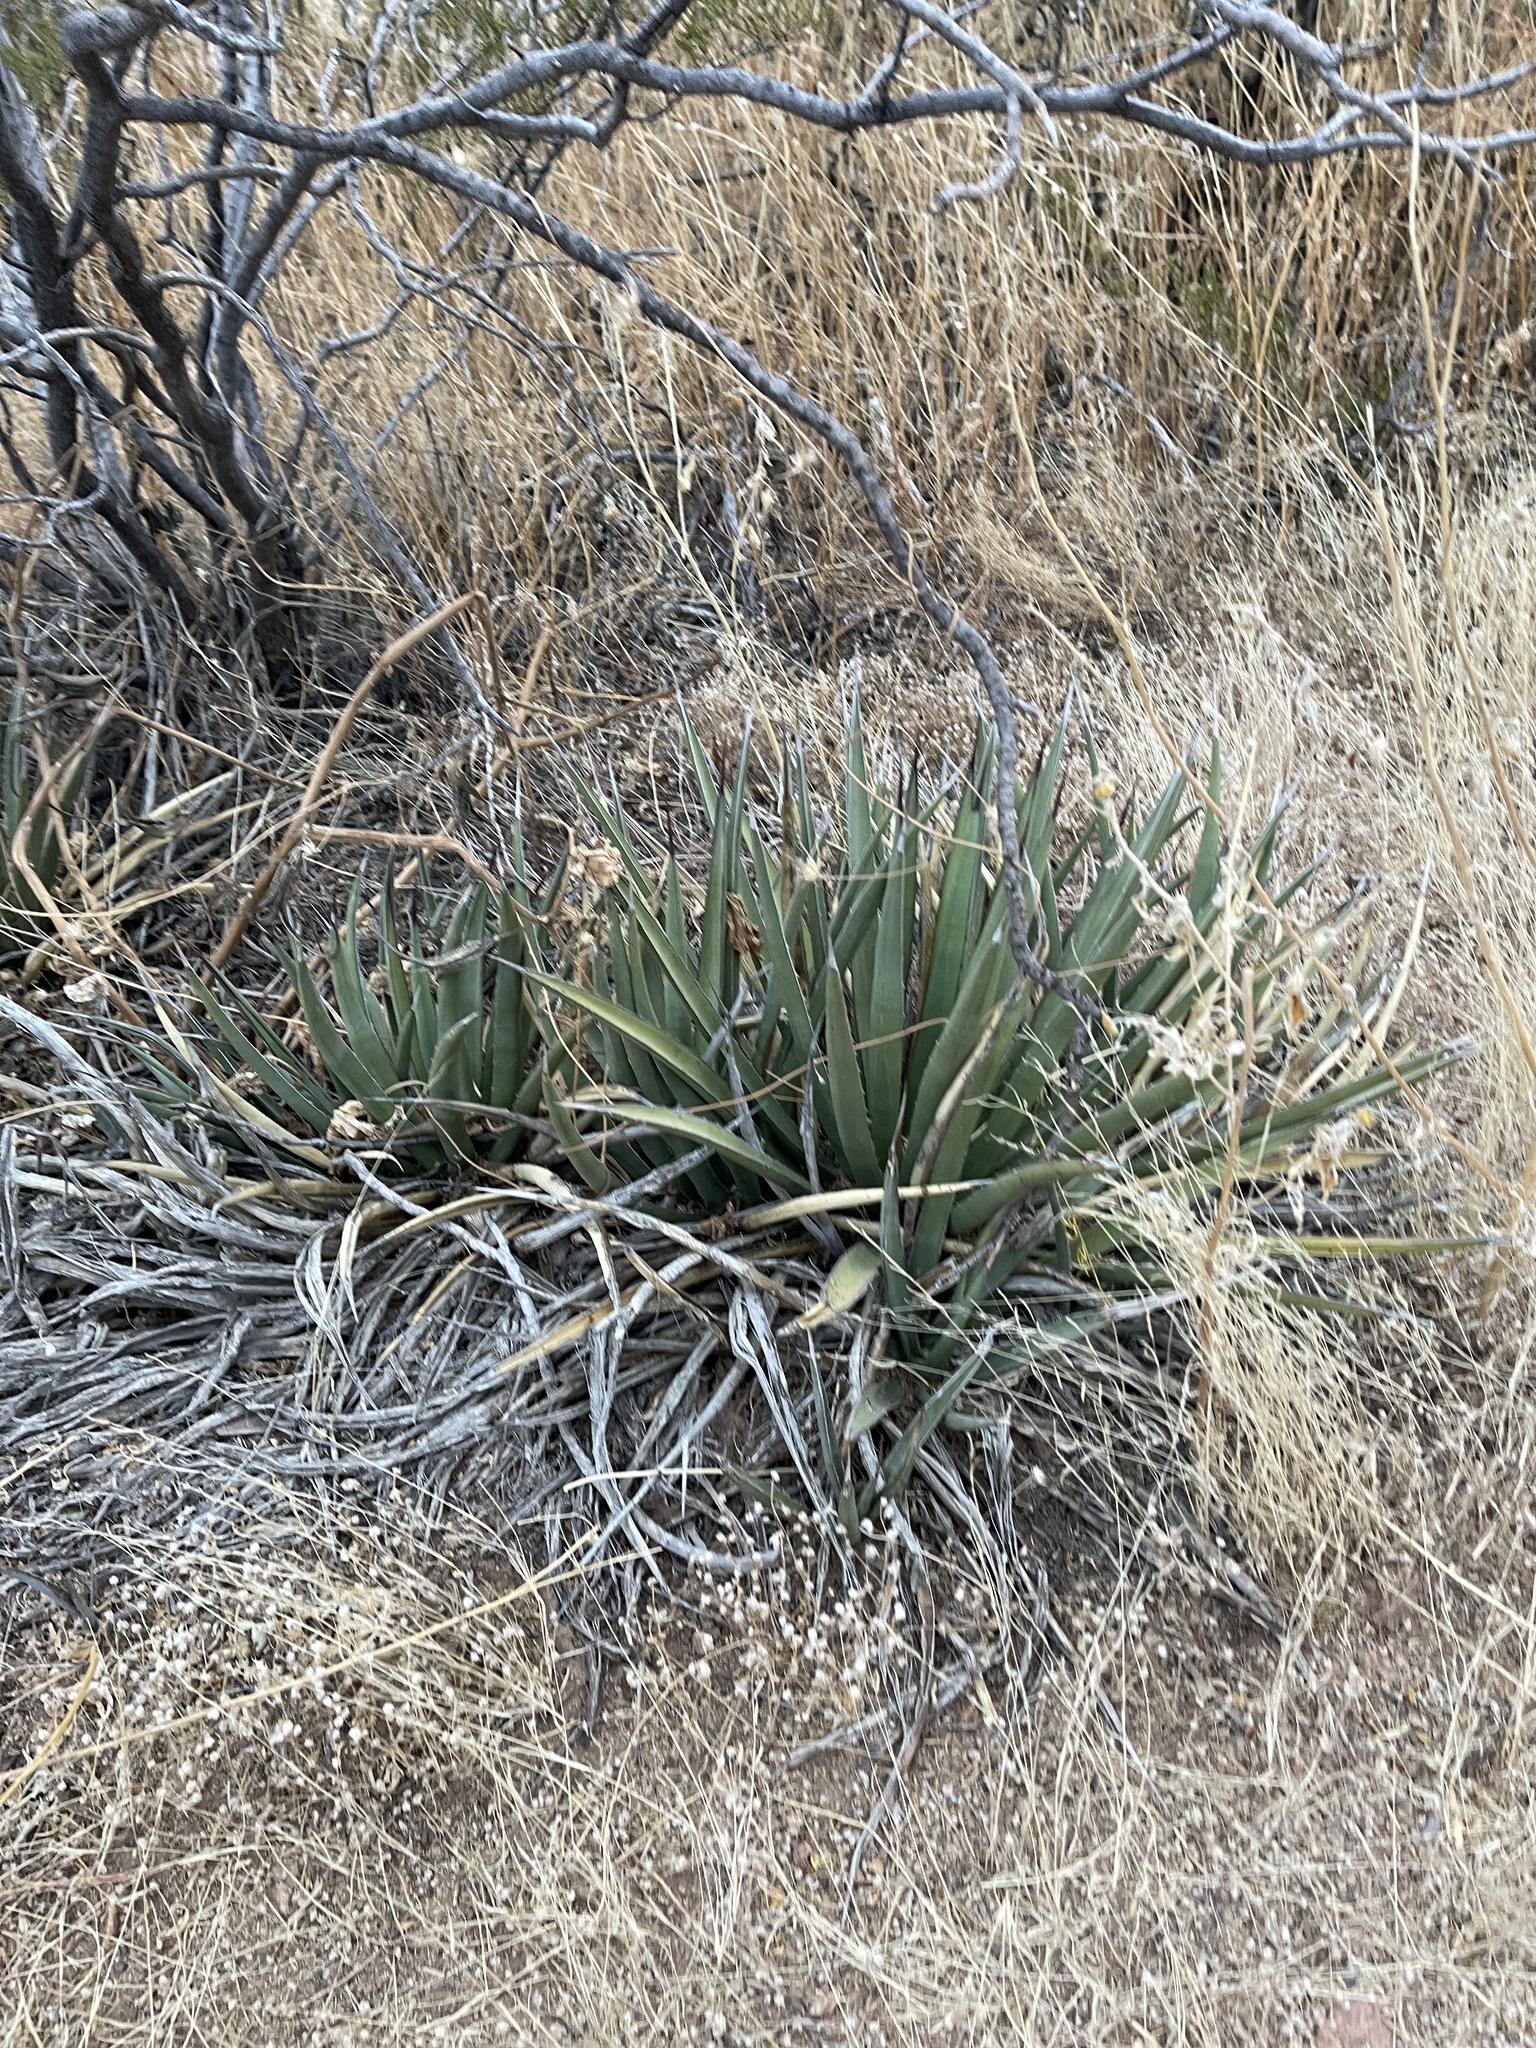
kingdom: Plantae
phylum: Tracheophyta
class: Liliopsida
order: Asparagales
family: Asparagaceae
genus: Agave
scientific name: Agave lechuguilla
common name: Lecheguilla agave
